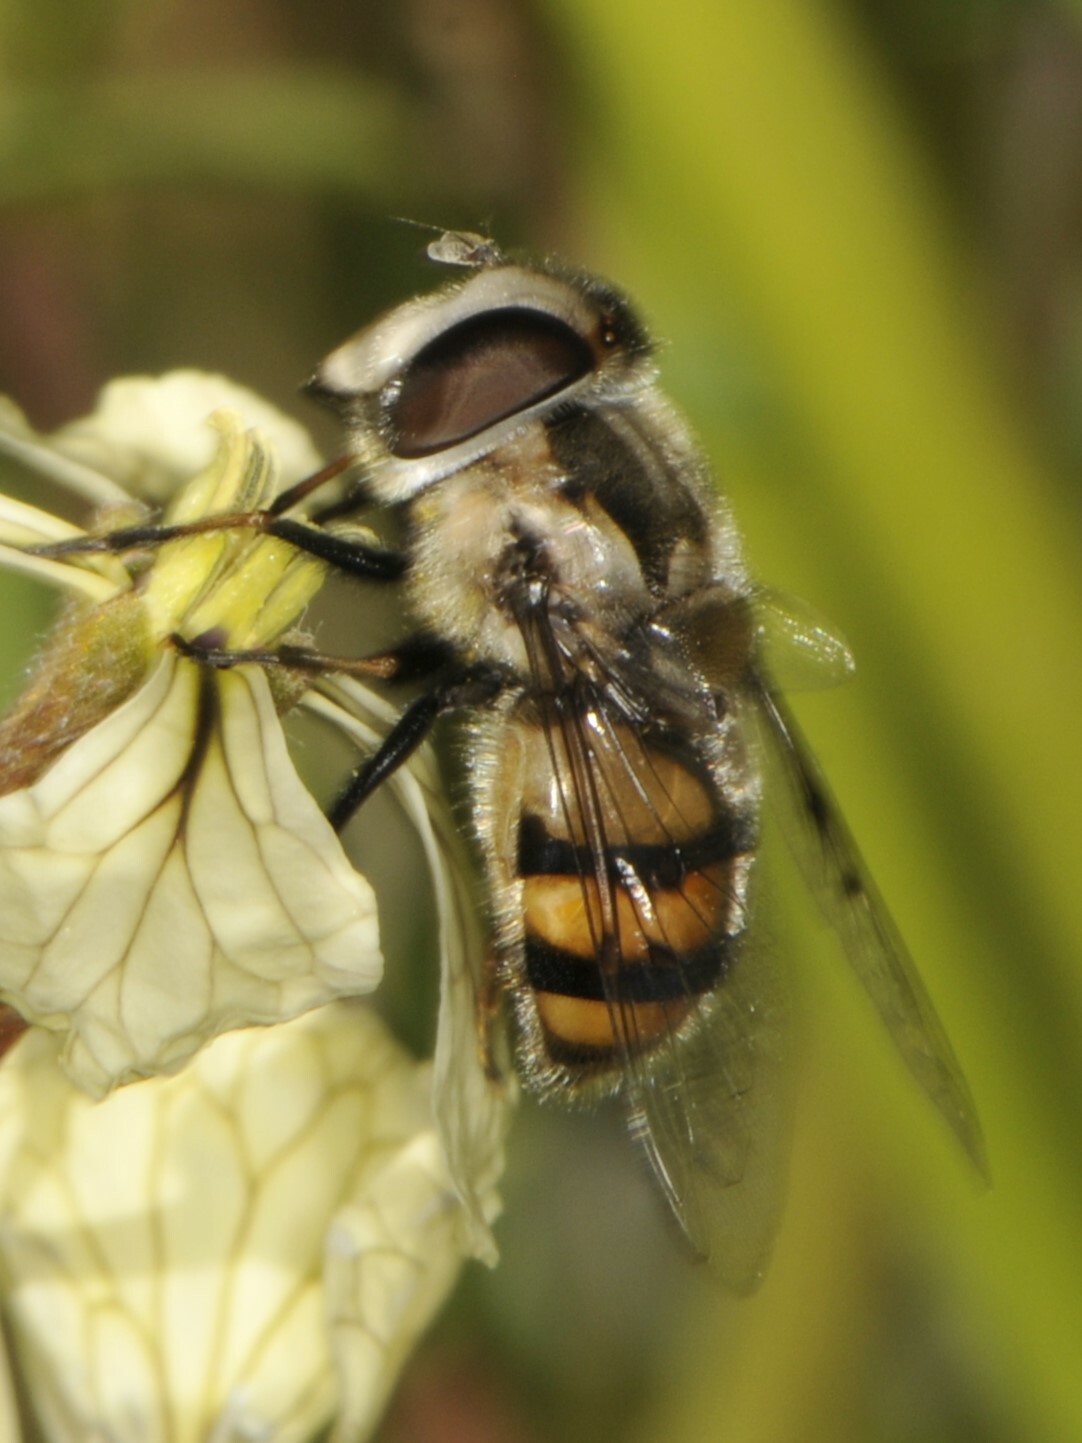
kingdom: Animalia
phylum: Arthropoda
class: Insecta
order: Diptera
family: Syrphidae
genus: Copestylum
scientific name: Copestylum avidum
